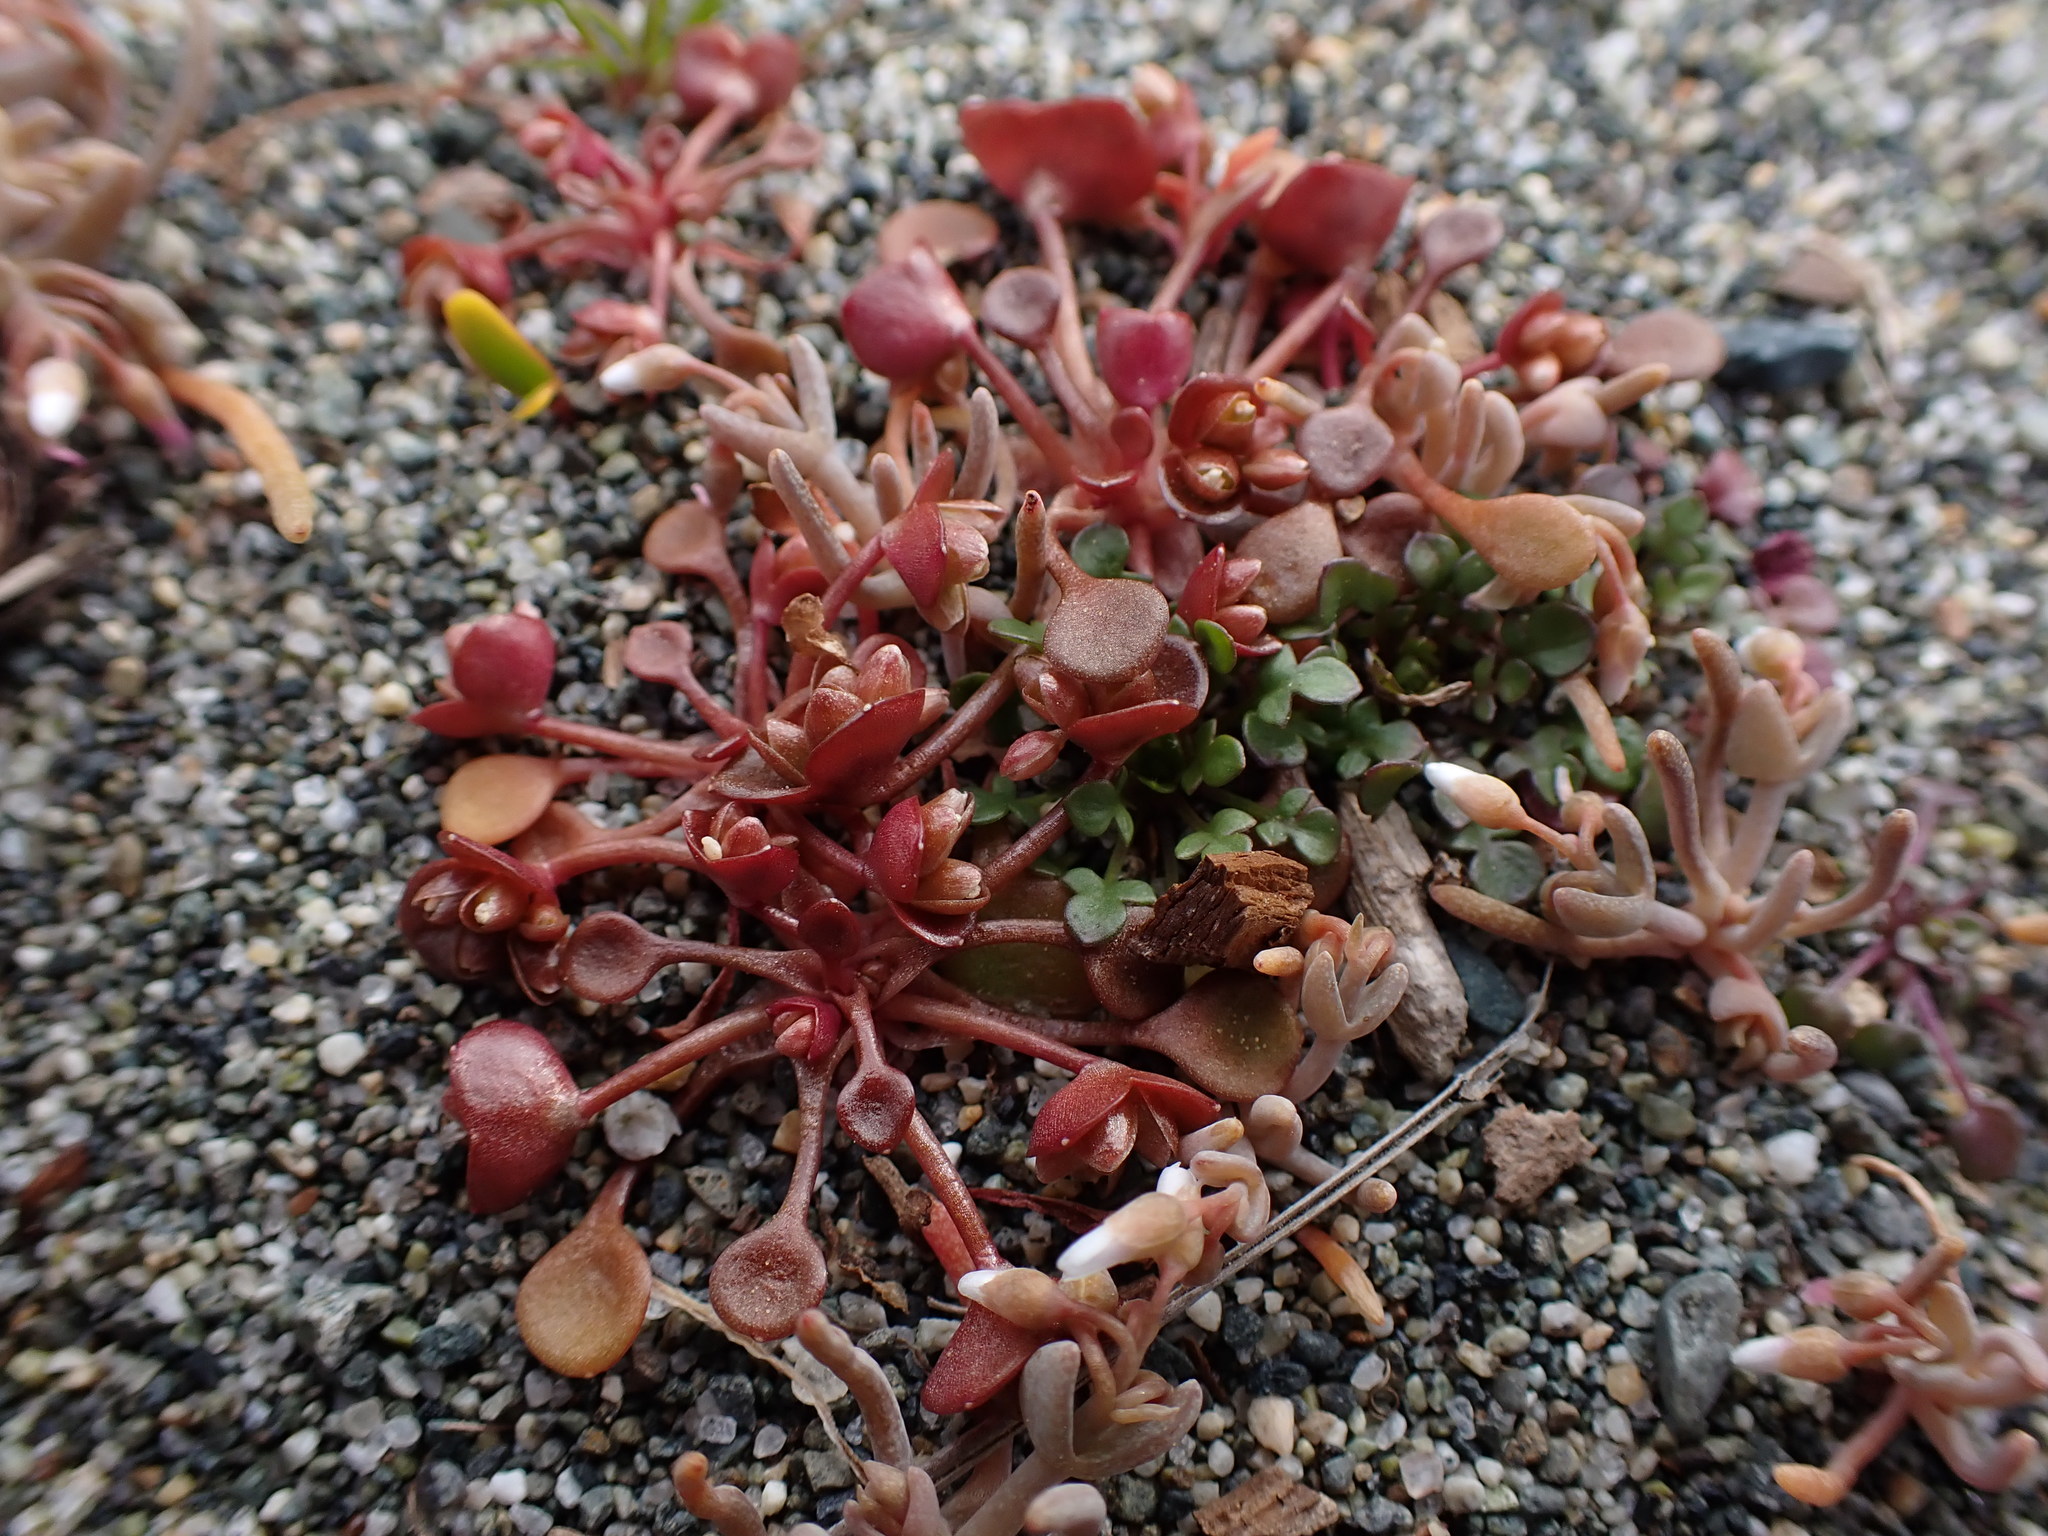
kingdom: Plantae
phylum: Tracheophyta
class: Magnoliopsida
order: Caryophyllales
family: Montiaceae
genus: Claytonia
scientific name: Claytonia rubra
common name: Erubescent miner's-lettuce
